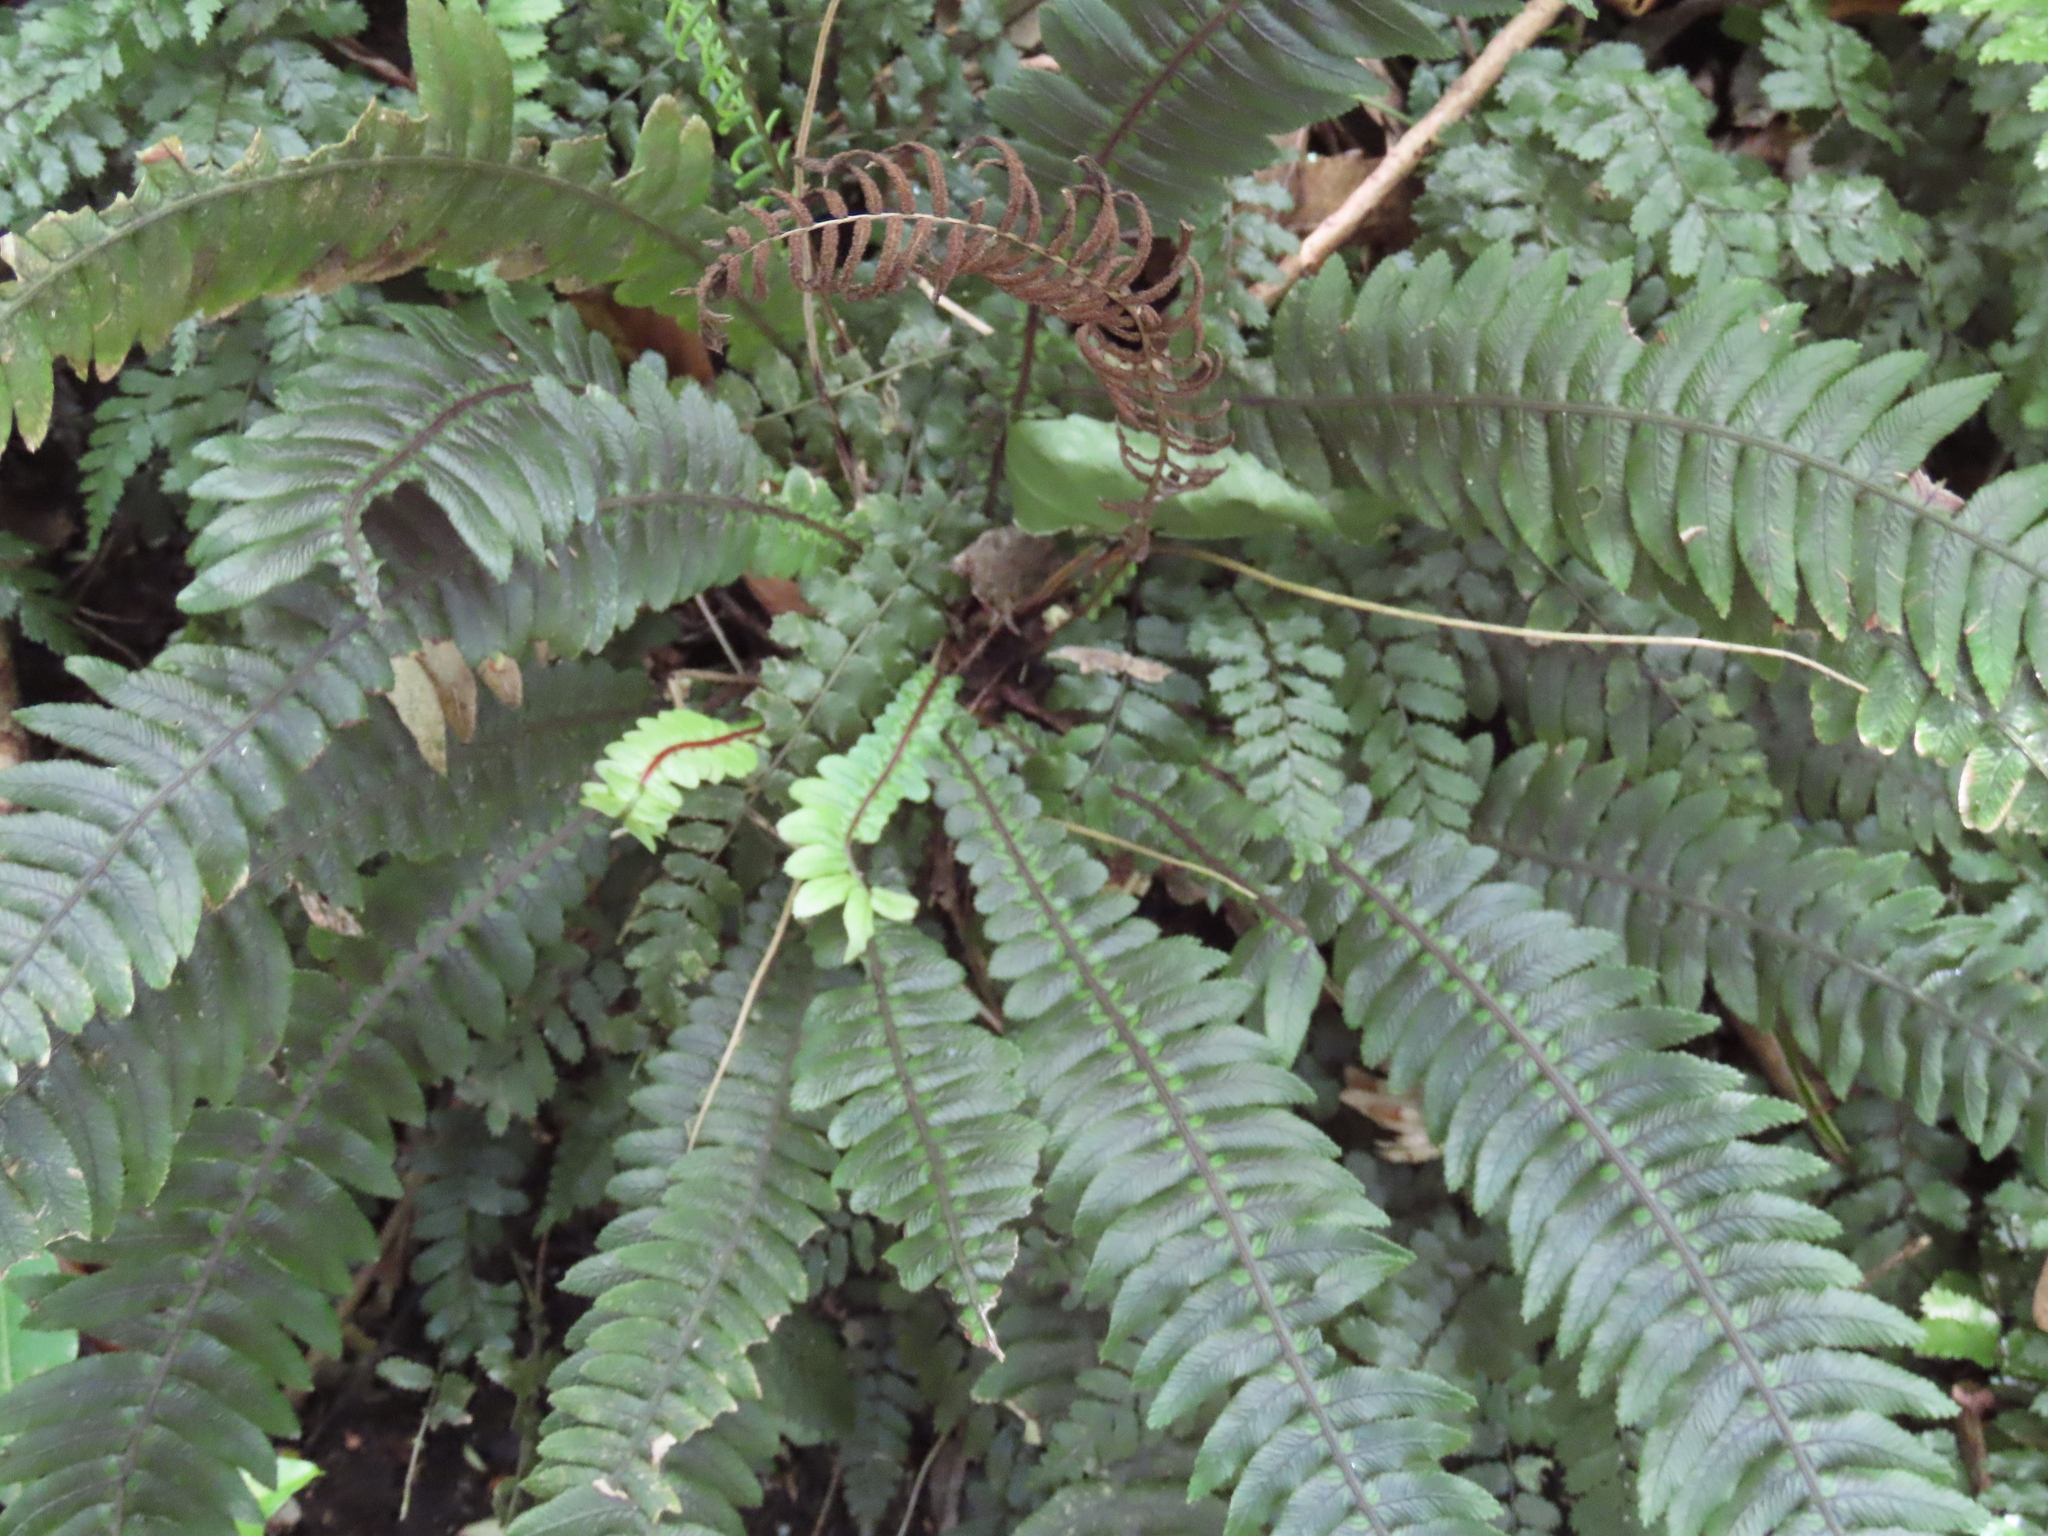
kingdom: Plantae
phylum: Tracheophyta
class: Polypodiopsida
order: Polypodiales
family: Blechnaceae
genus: Austroblechnum
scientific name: Austroblechnum lanceolatum
